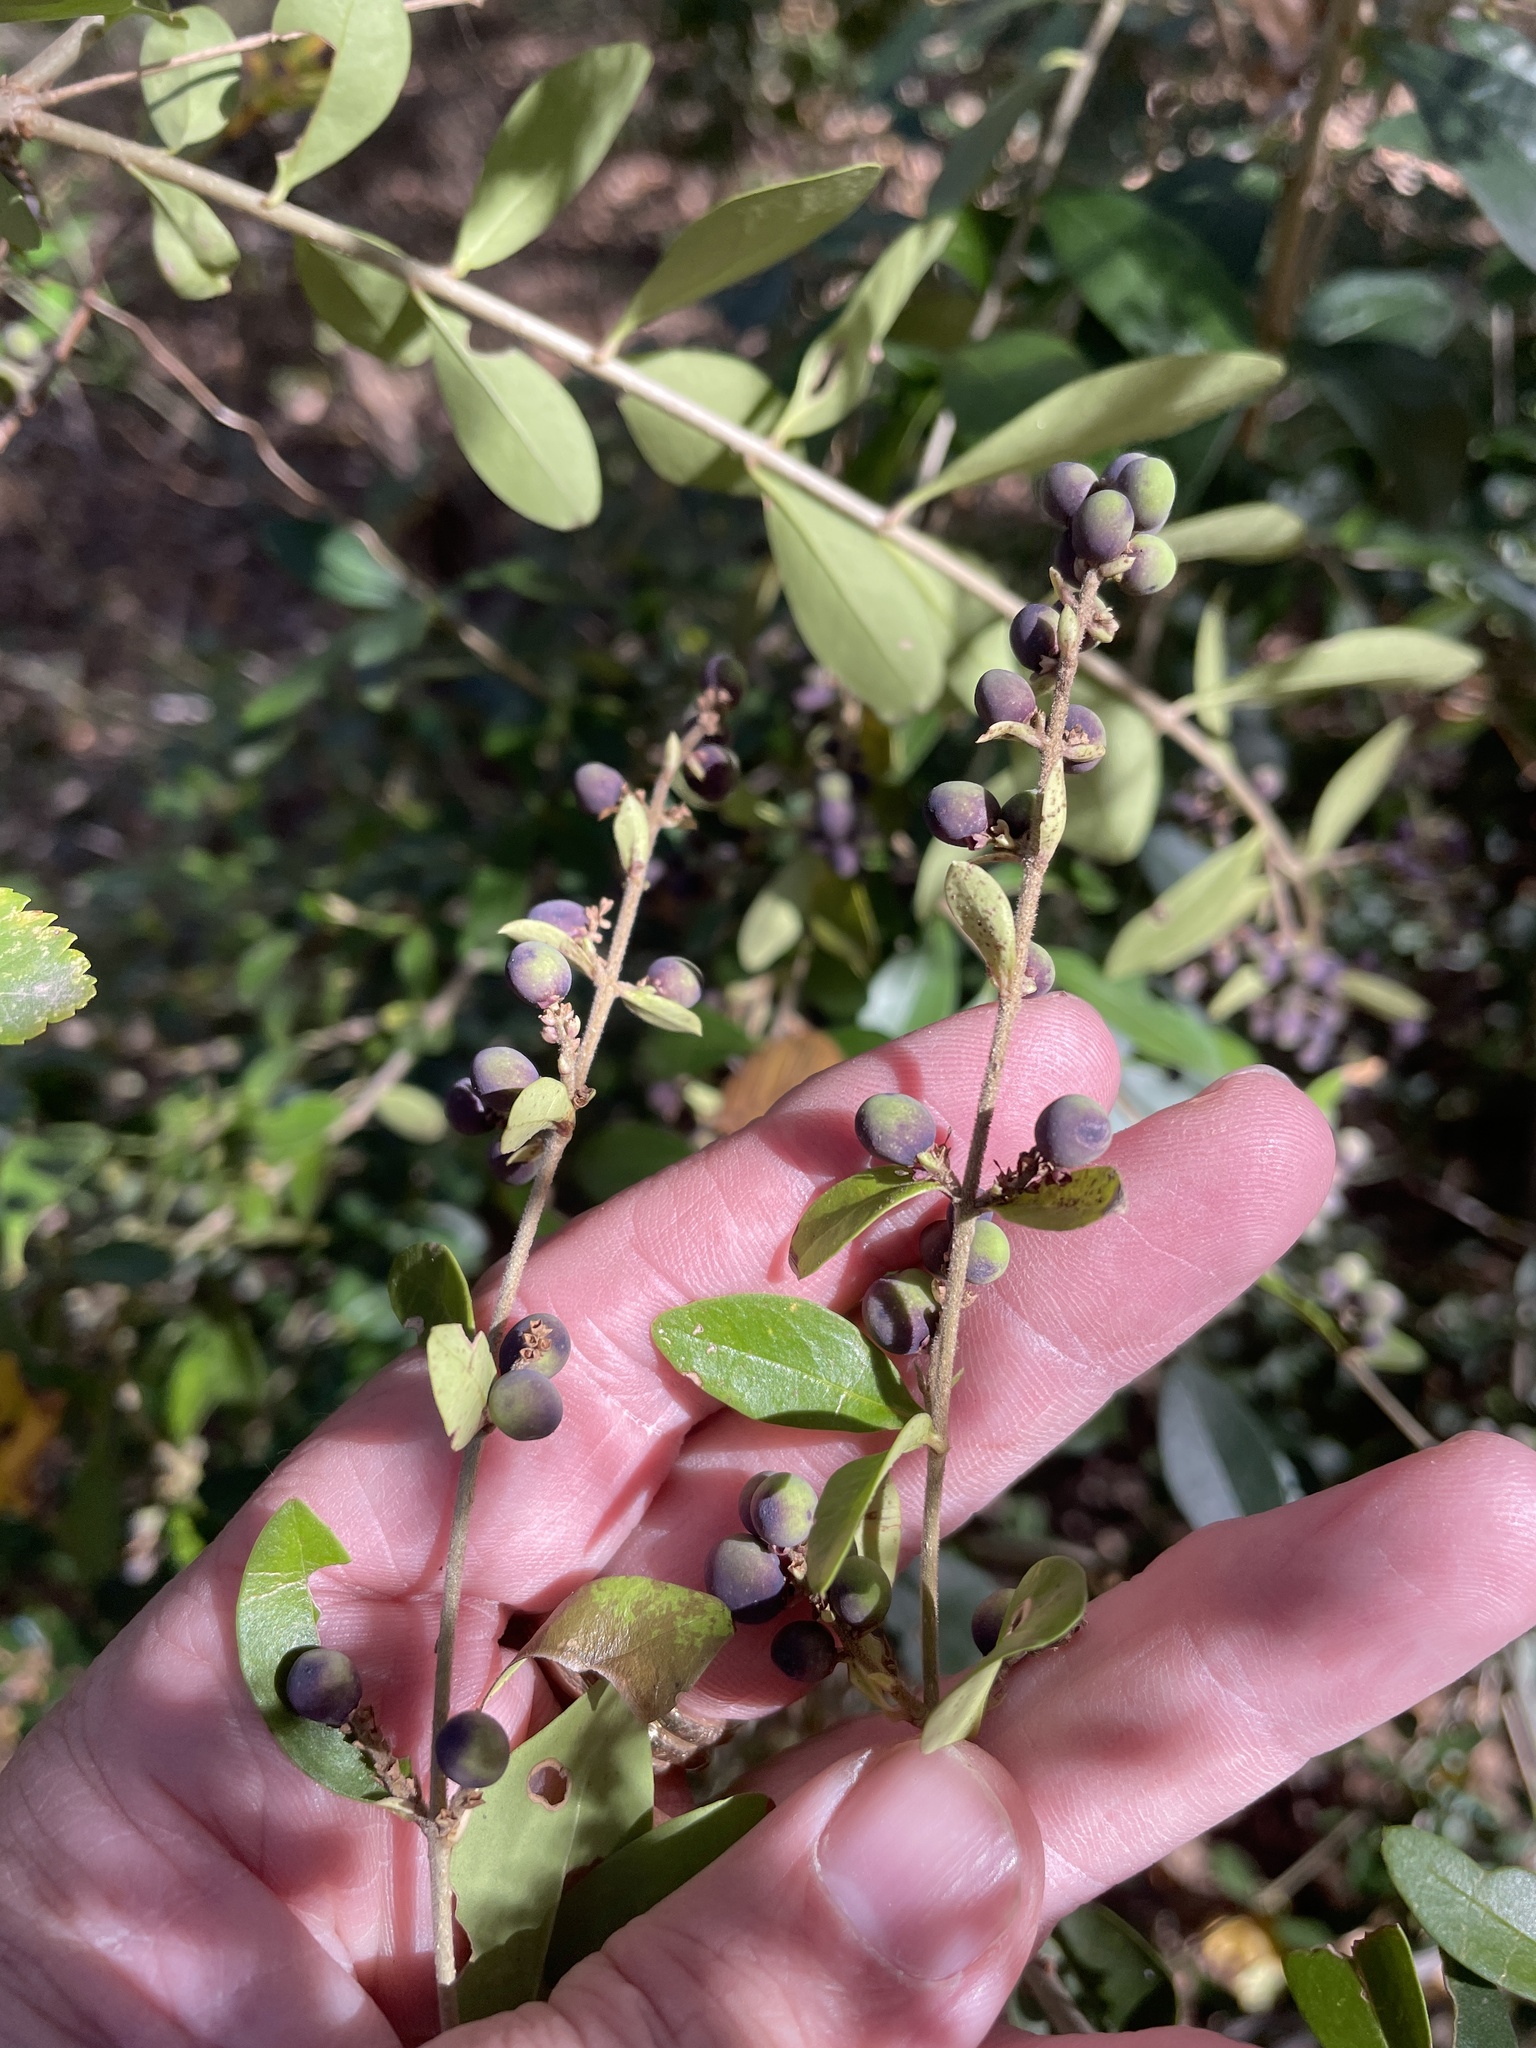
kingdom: Plantae
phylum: Tracheophyta
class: Magnoliopsida
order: Lamiales
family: Oleaceae
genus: Ligustrum
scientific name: Ligustrum quihoui
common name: Waxyleaf privet
